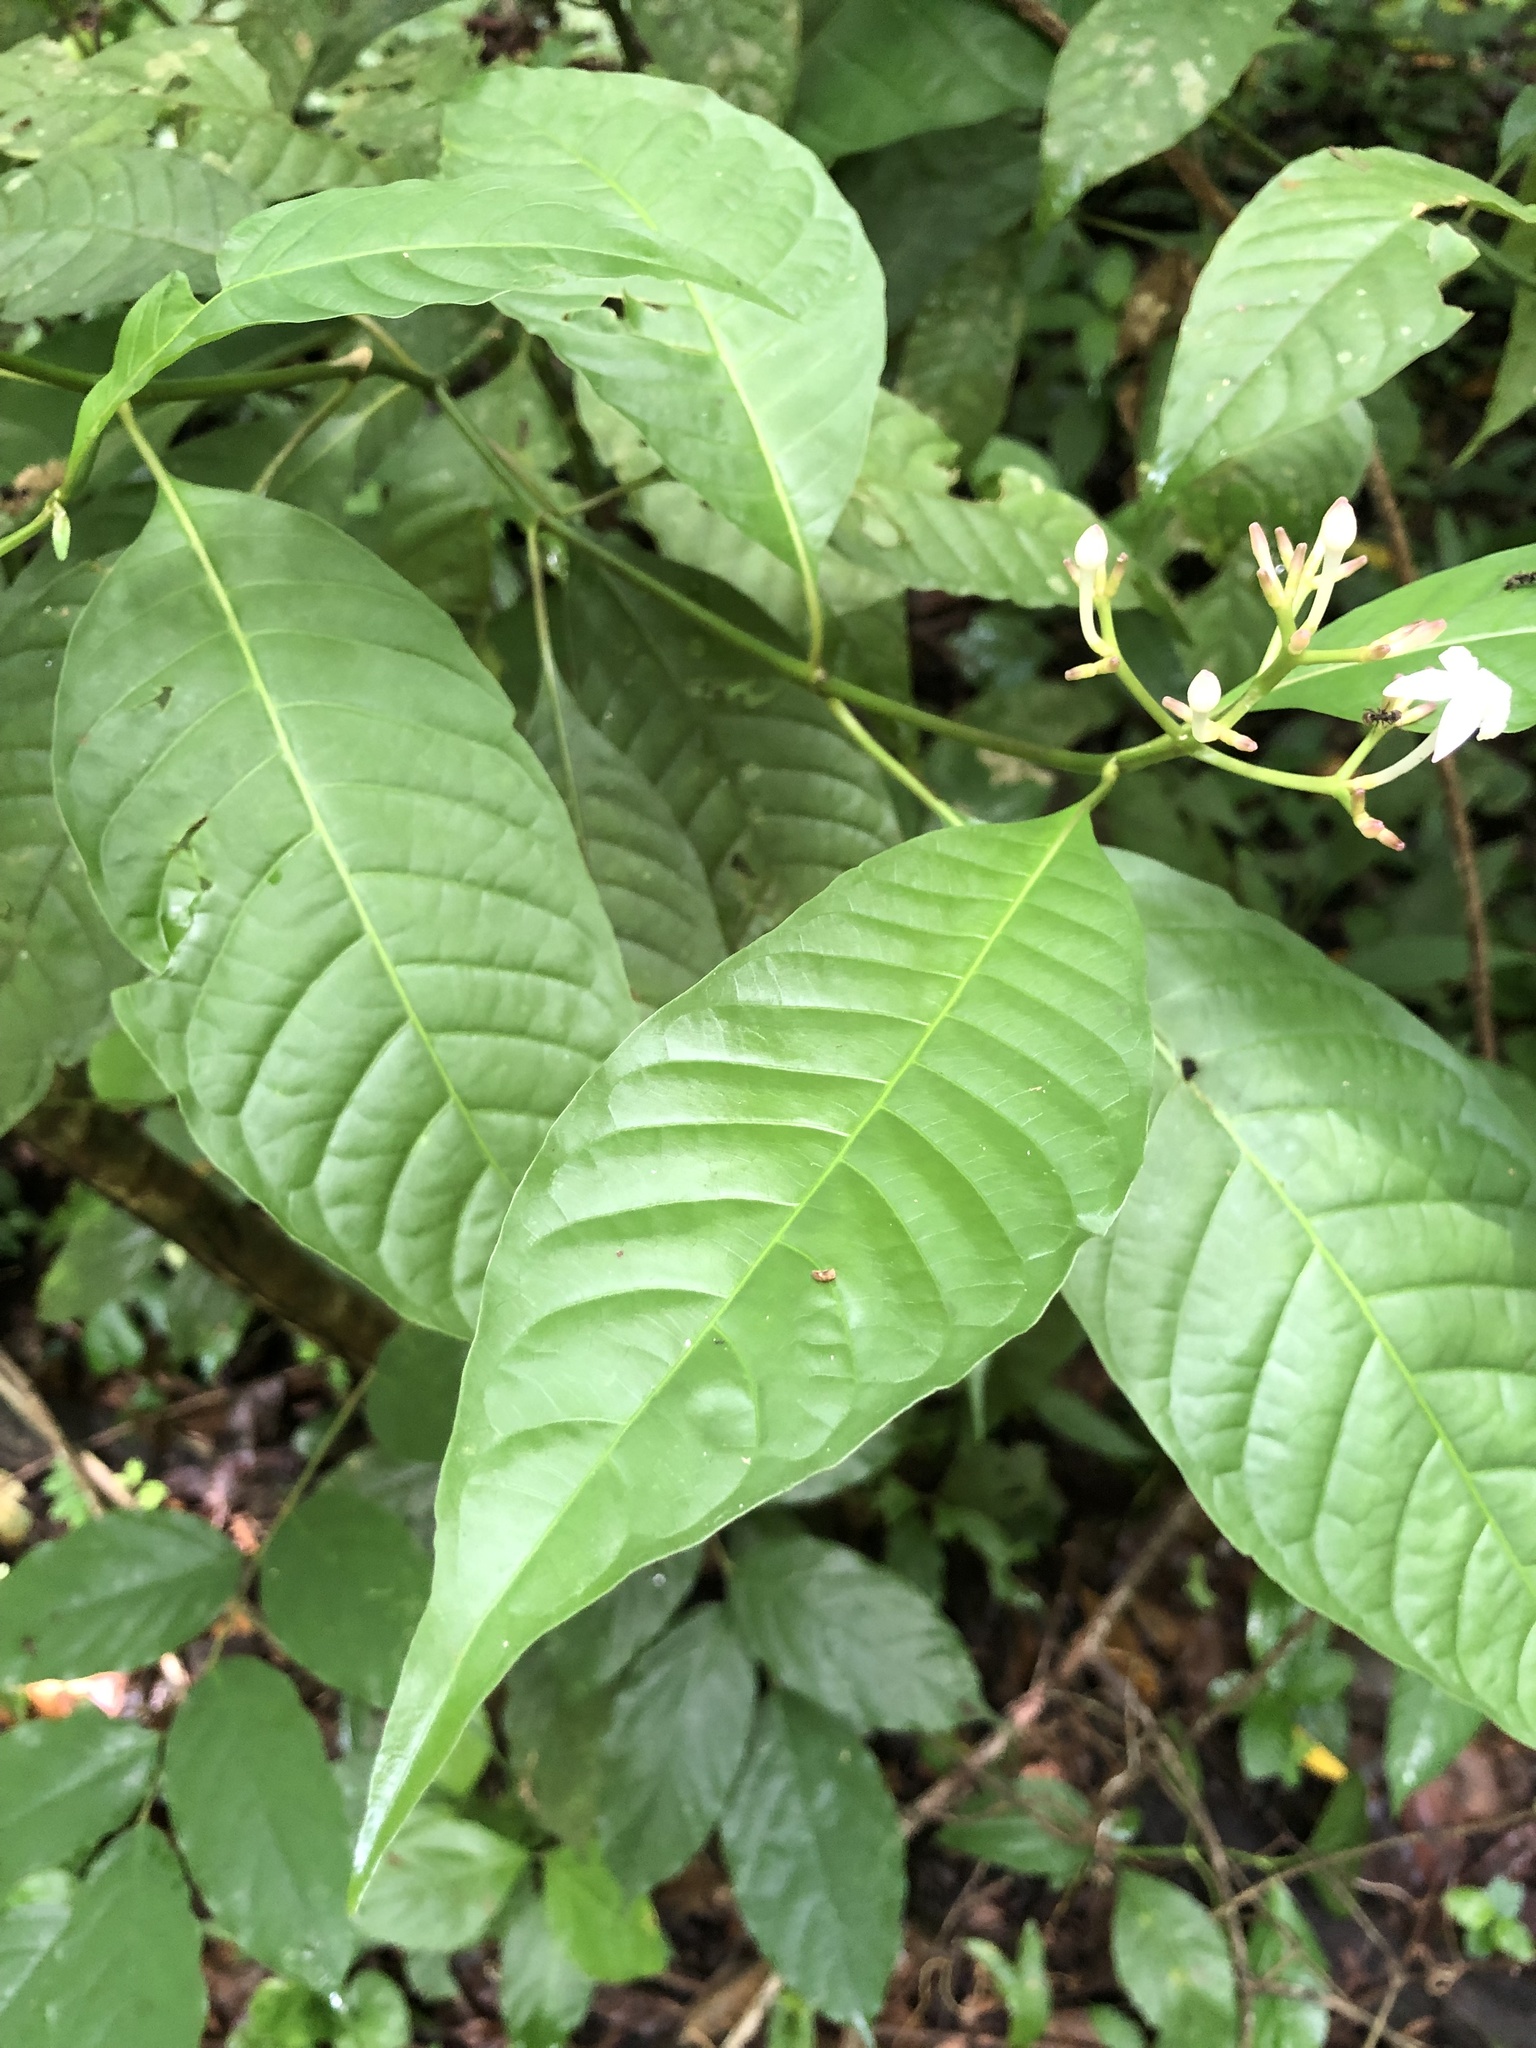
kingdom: Plantae
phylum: Tracheophyta
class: Magnoliopsida
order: Gentianales
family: Rubiaceae
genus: Palicourea
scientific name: Palicourea domingensis
